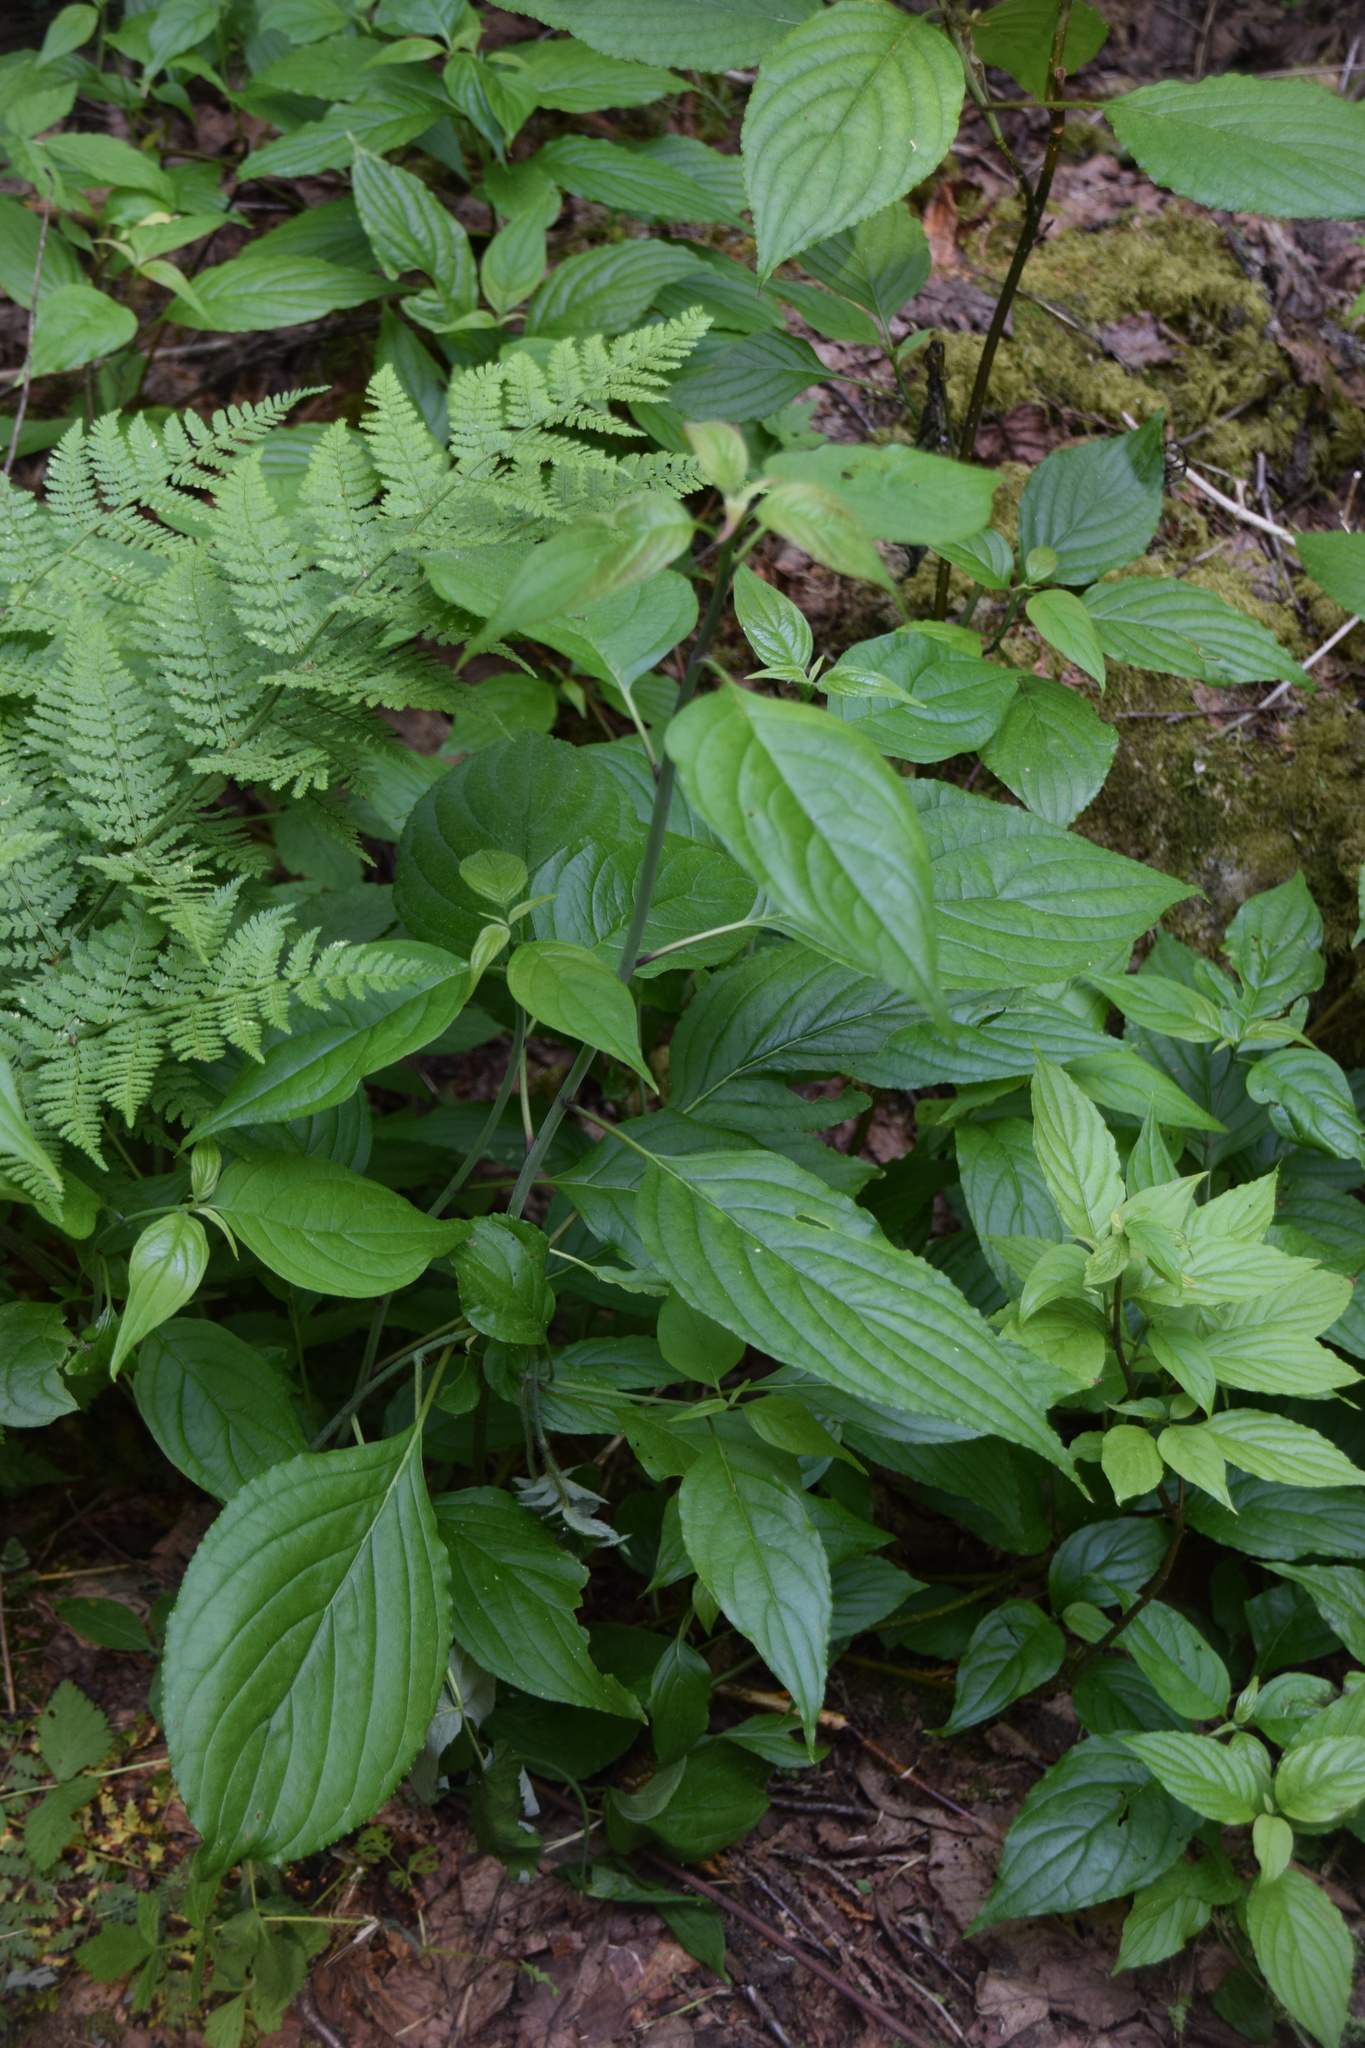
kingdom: Plantae
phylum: Tracheophyta
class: Magnoliopsida
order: Cornales
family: Cornaceae
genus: Cornus
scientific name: Cornus alternifolia
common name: Pagoda dogwood
